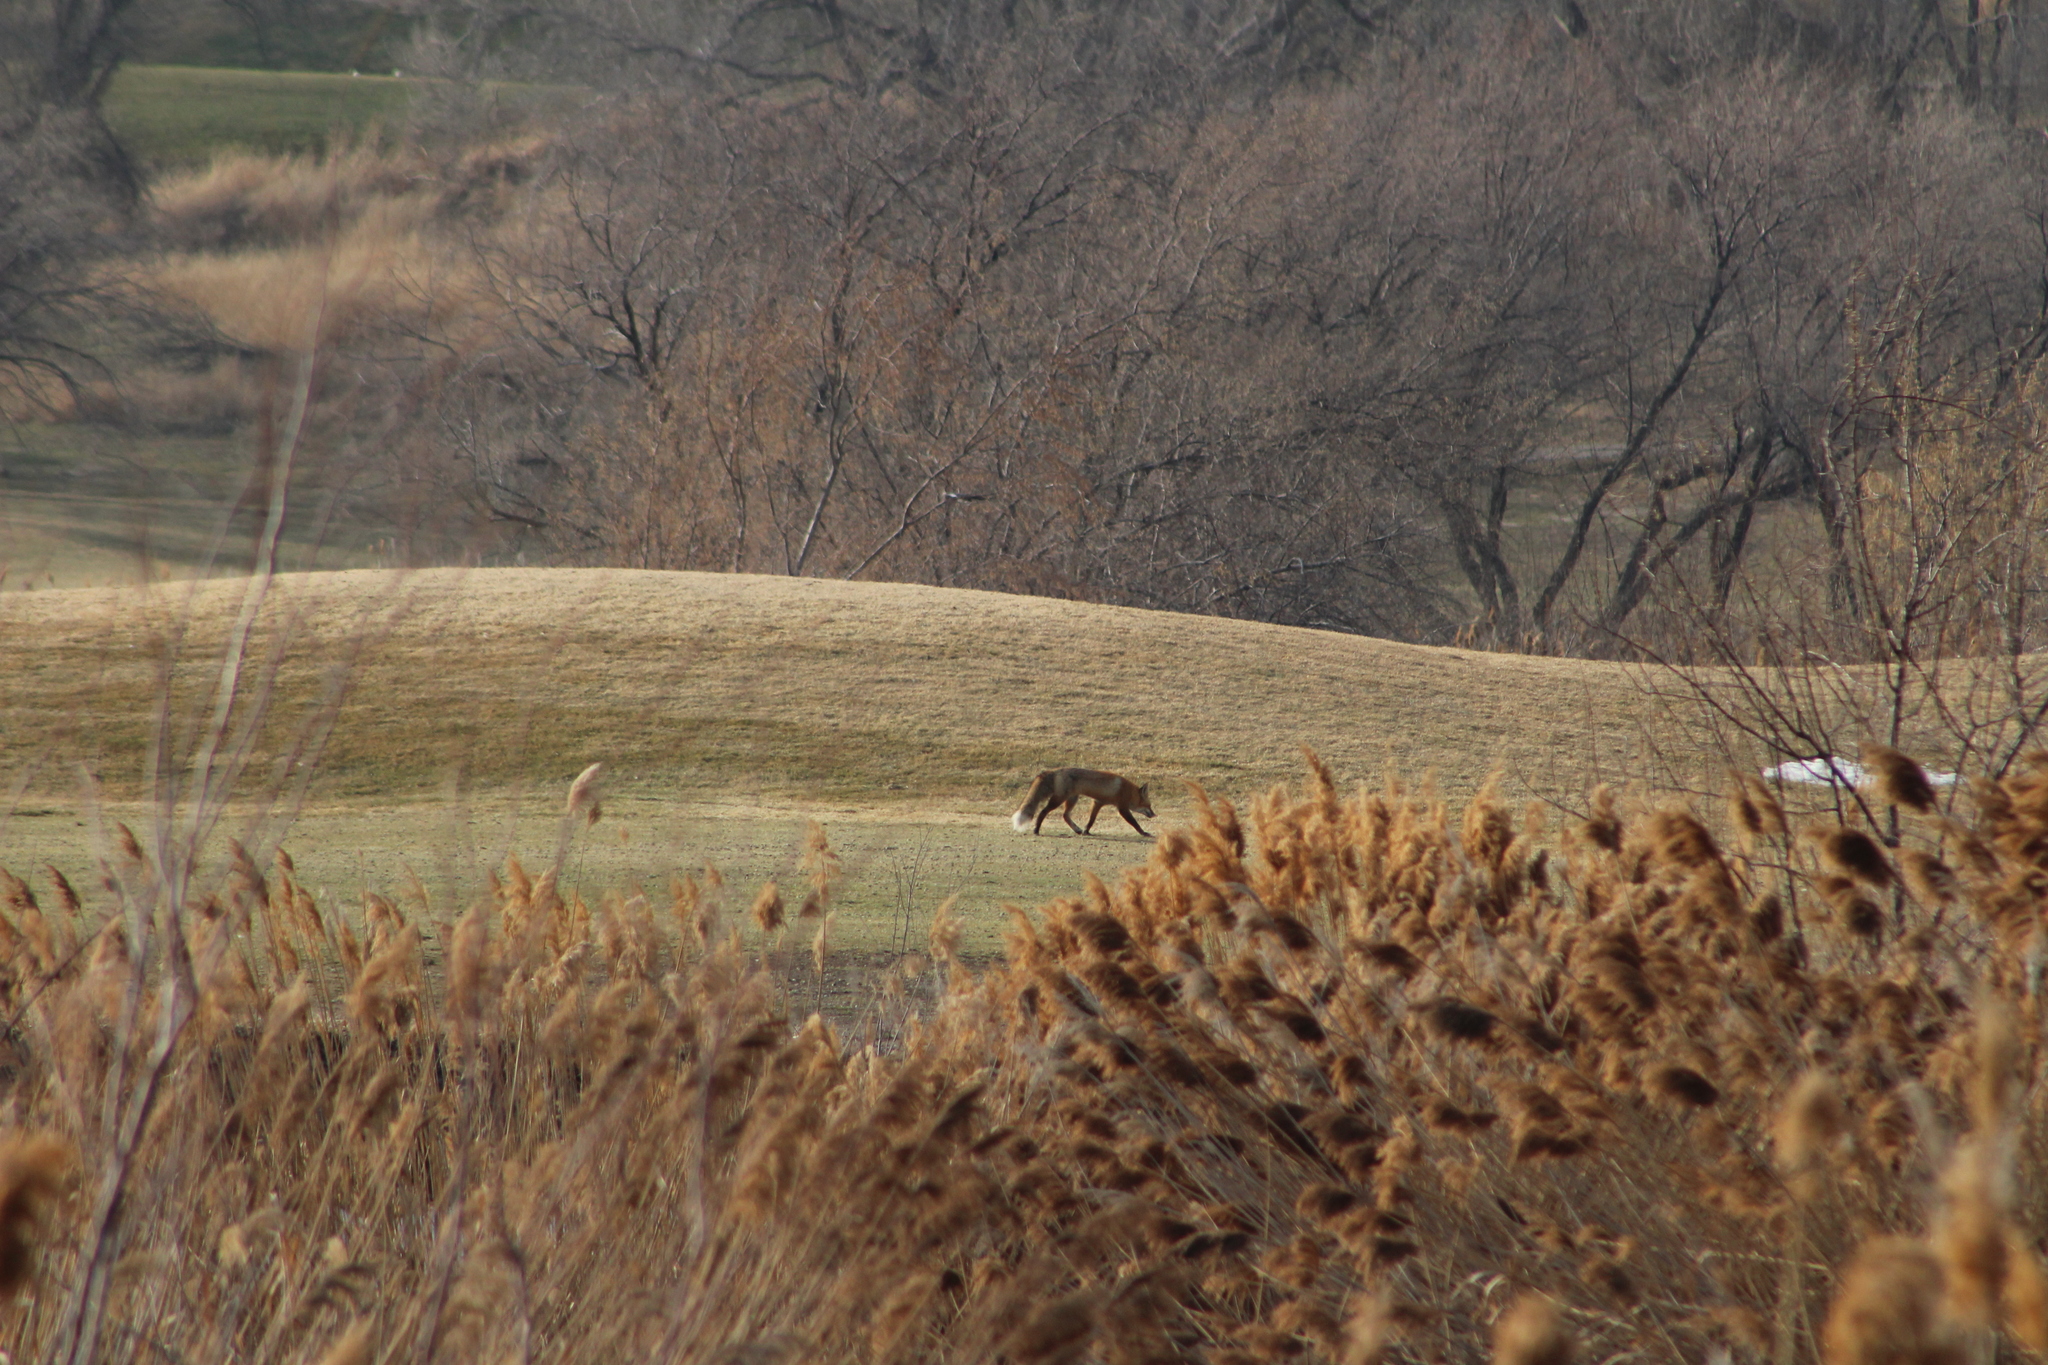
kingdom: Animalia
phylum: Chordata
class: Mammalia
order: Carnivora
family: Canidae
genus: Vulpes
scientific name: Vulpes vulpes
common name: Red fox
